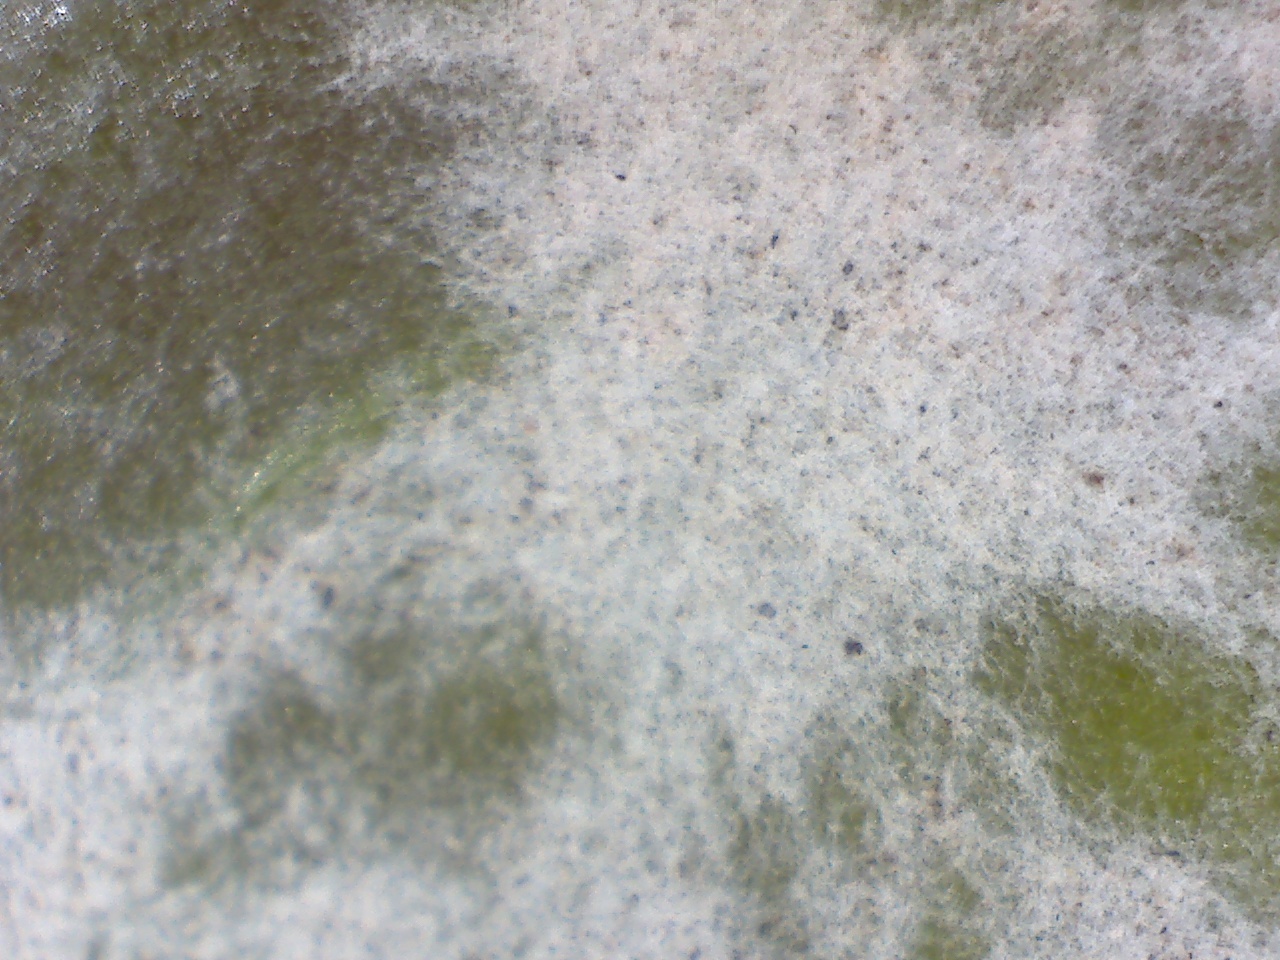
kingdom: Fungi
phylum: Ascomycota
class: Leotiomycetes
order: Helotiales
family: Erysiphaceae
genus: Erysiphe
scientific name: Erysiphe euonymicola
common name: Spindletree mildew
